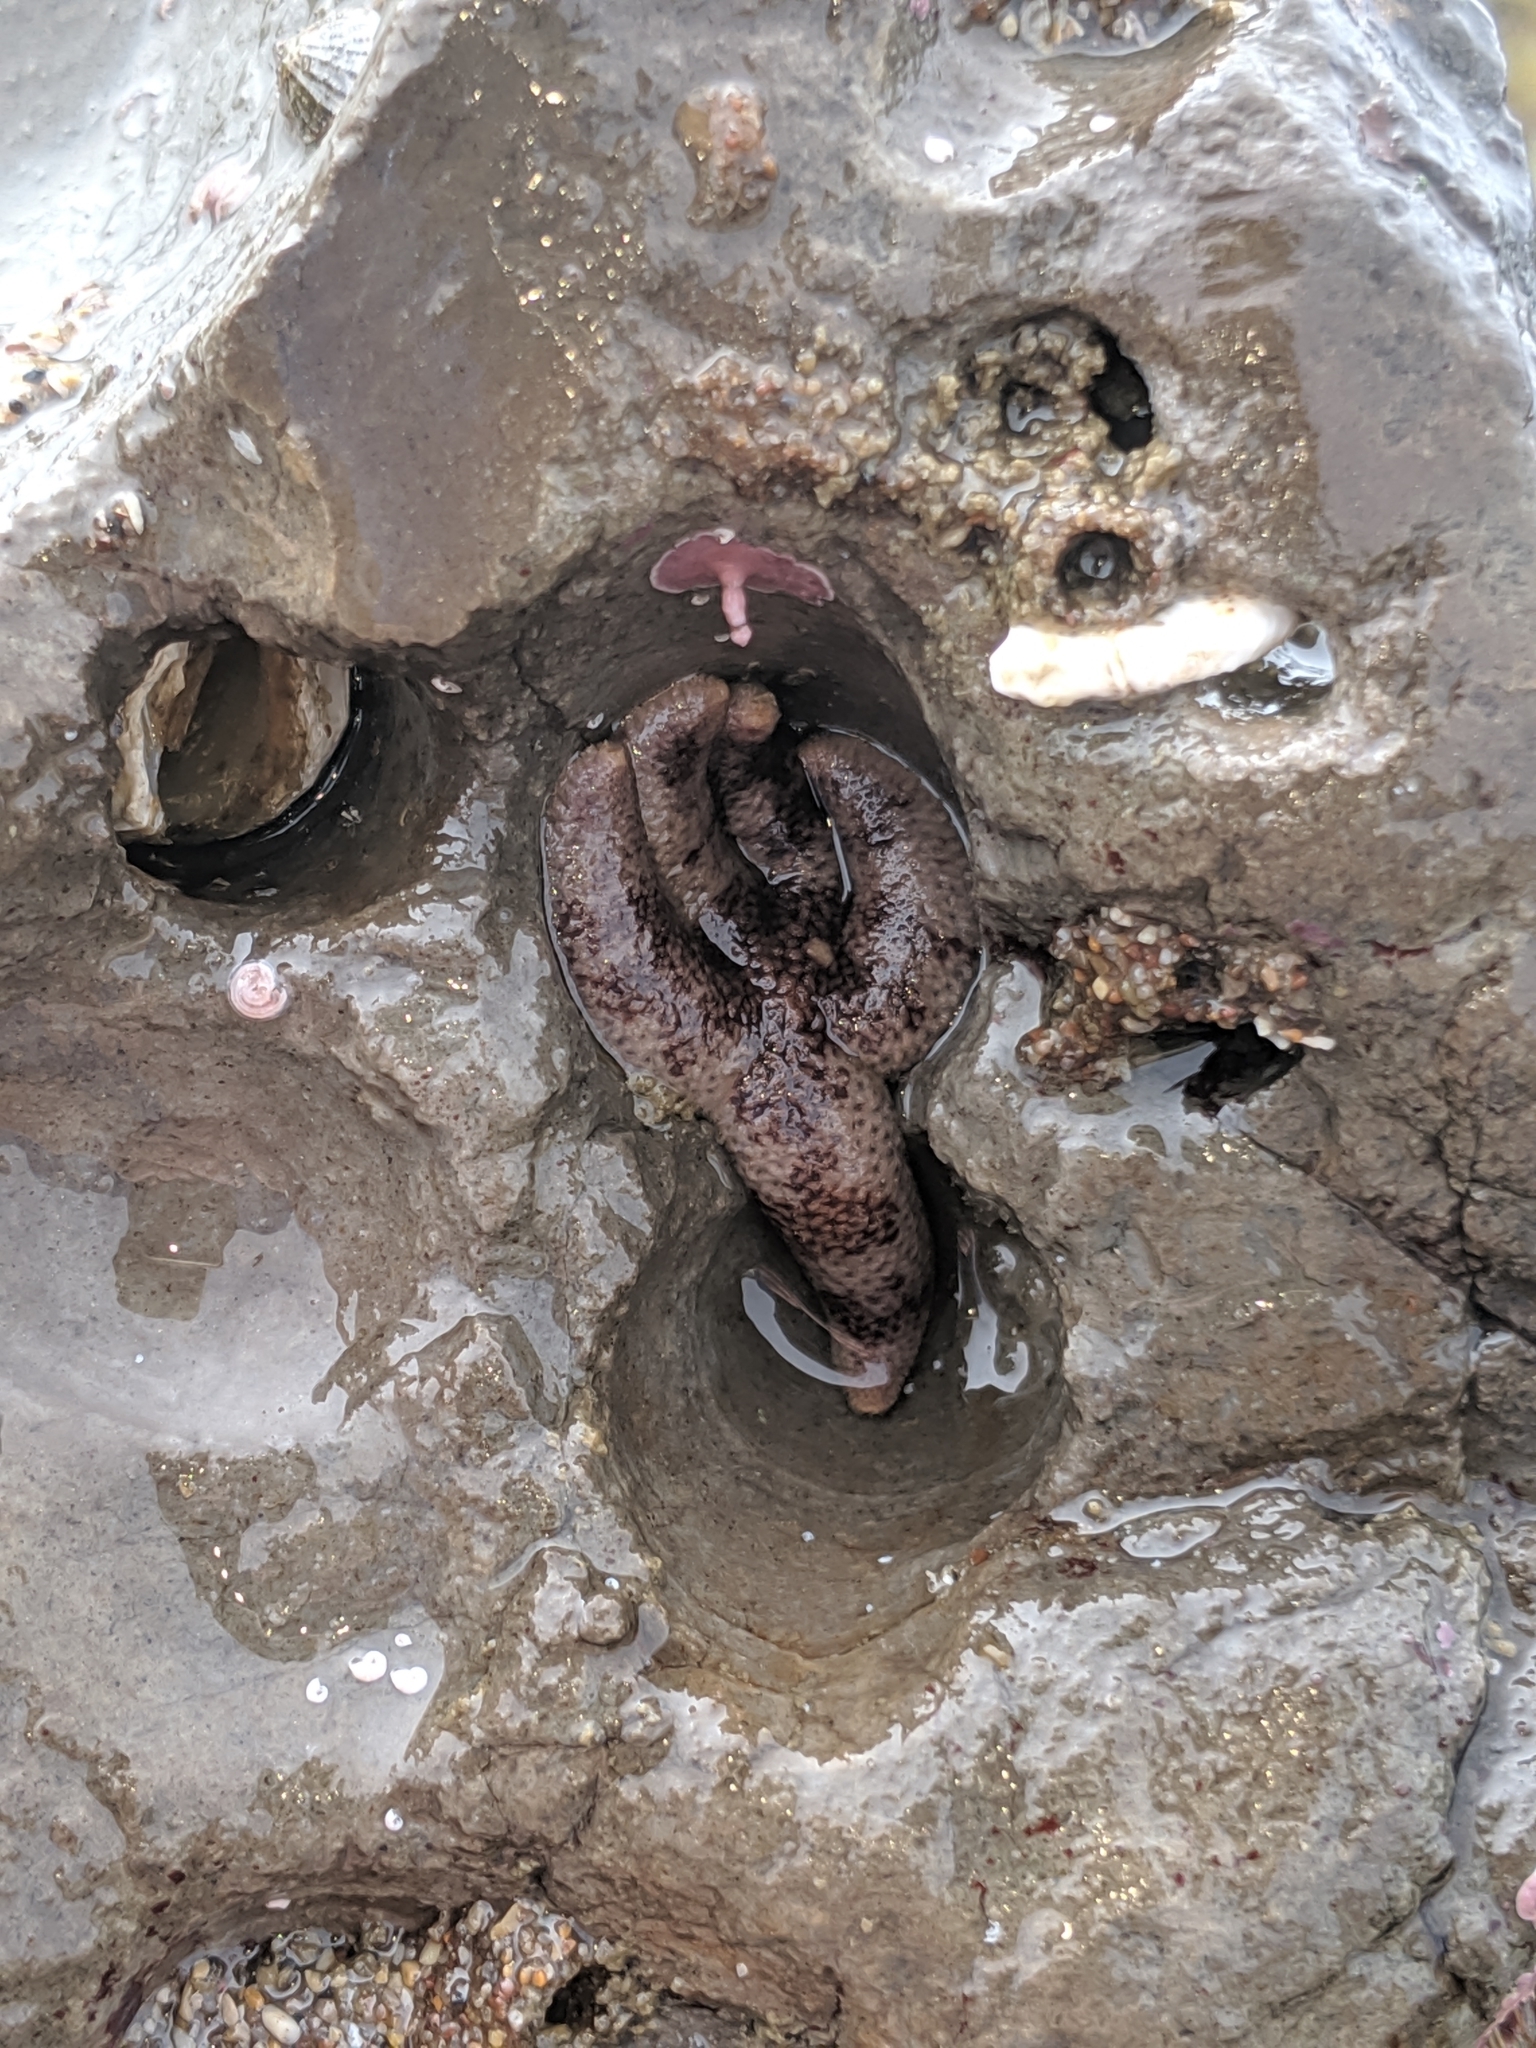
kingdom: Animalia
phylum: Echinodermata
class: Asteroidea
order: Spinulosida
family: Echinasteridae
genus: Henricia
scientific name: Henricia pumila
